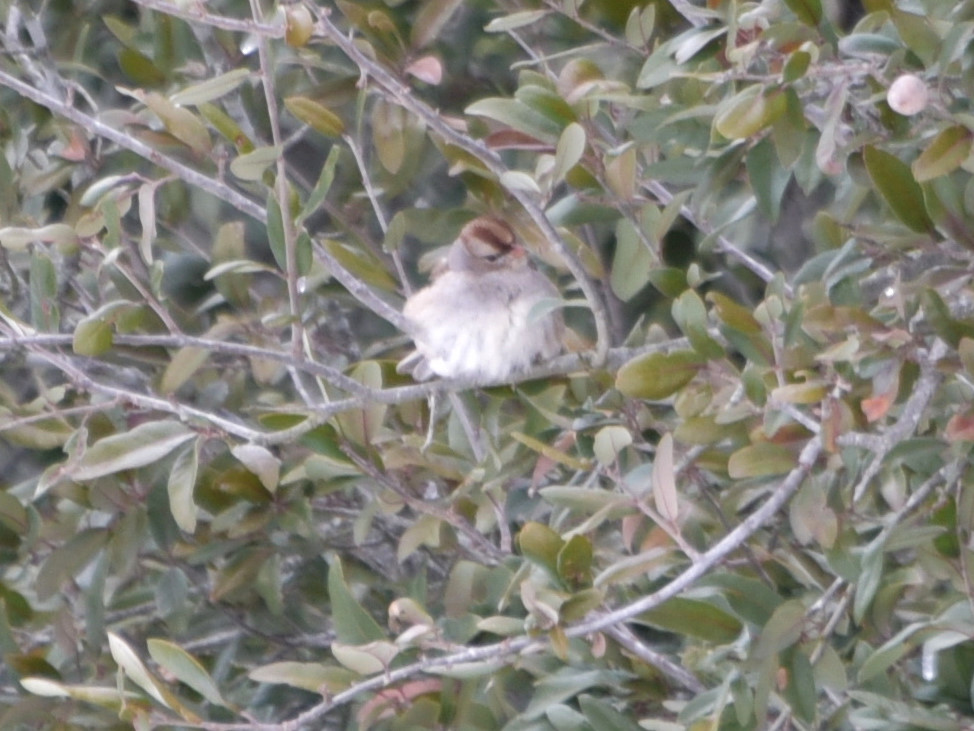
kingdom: Animalia
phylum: Chordata
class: Aves
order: Passeriformes
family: Passerellidae
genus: Zonotrichia
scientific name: Zonotrichia leucophrys
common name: White-crowned sparrow
